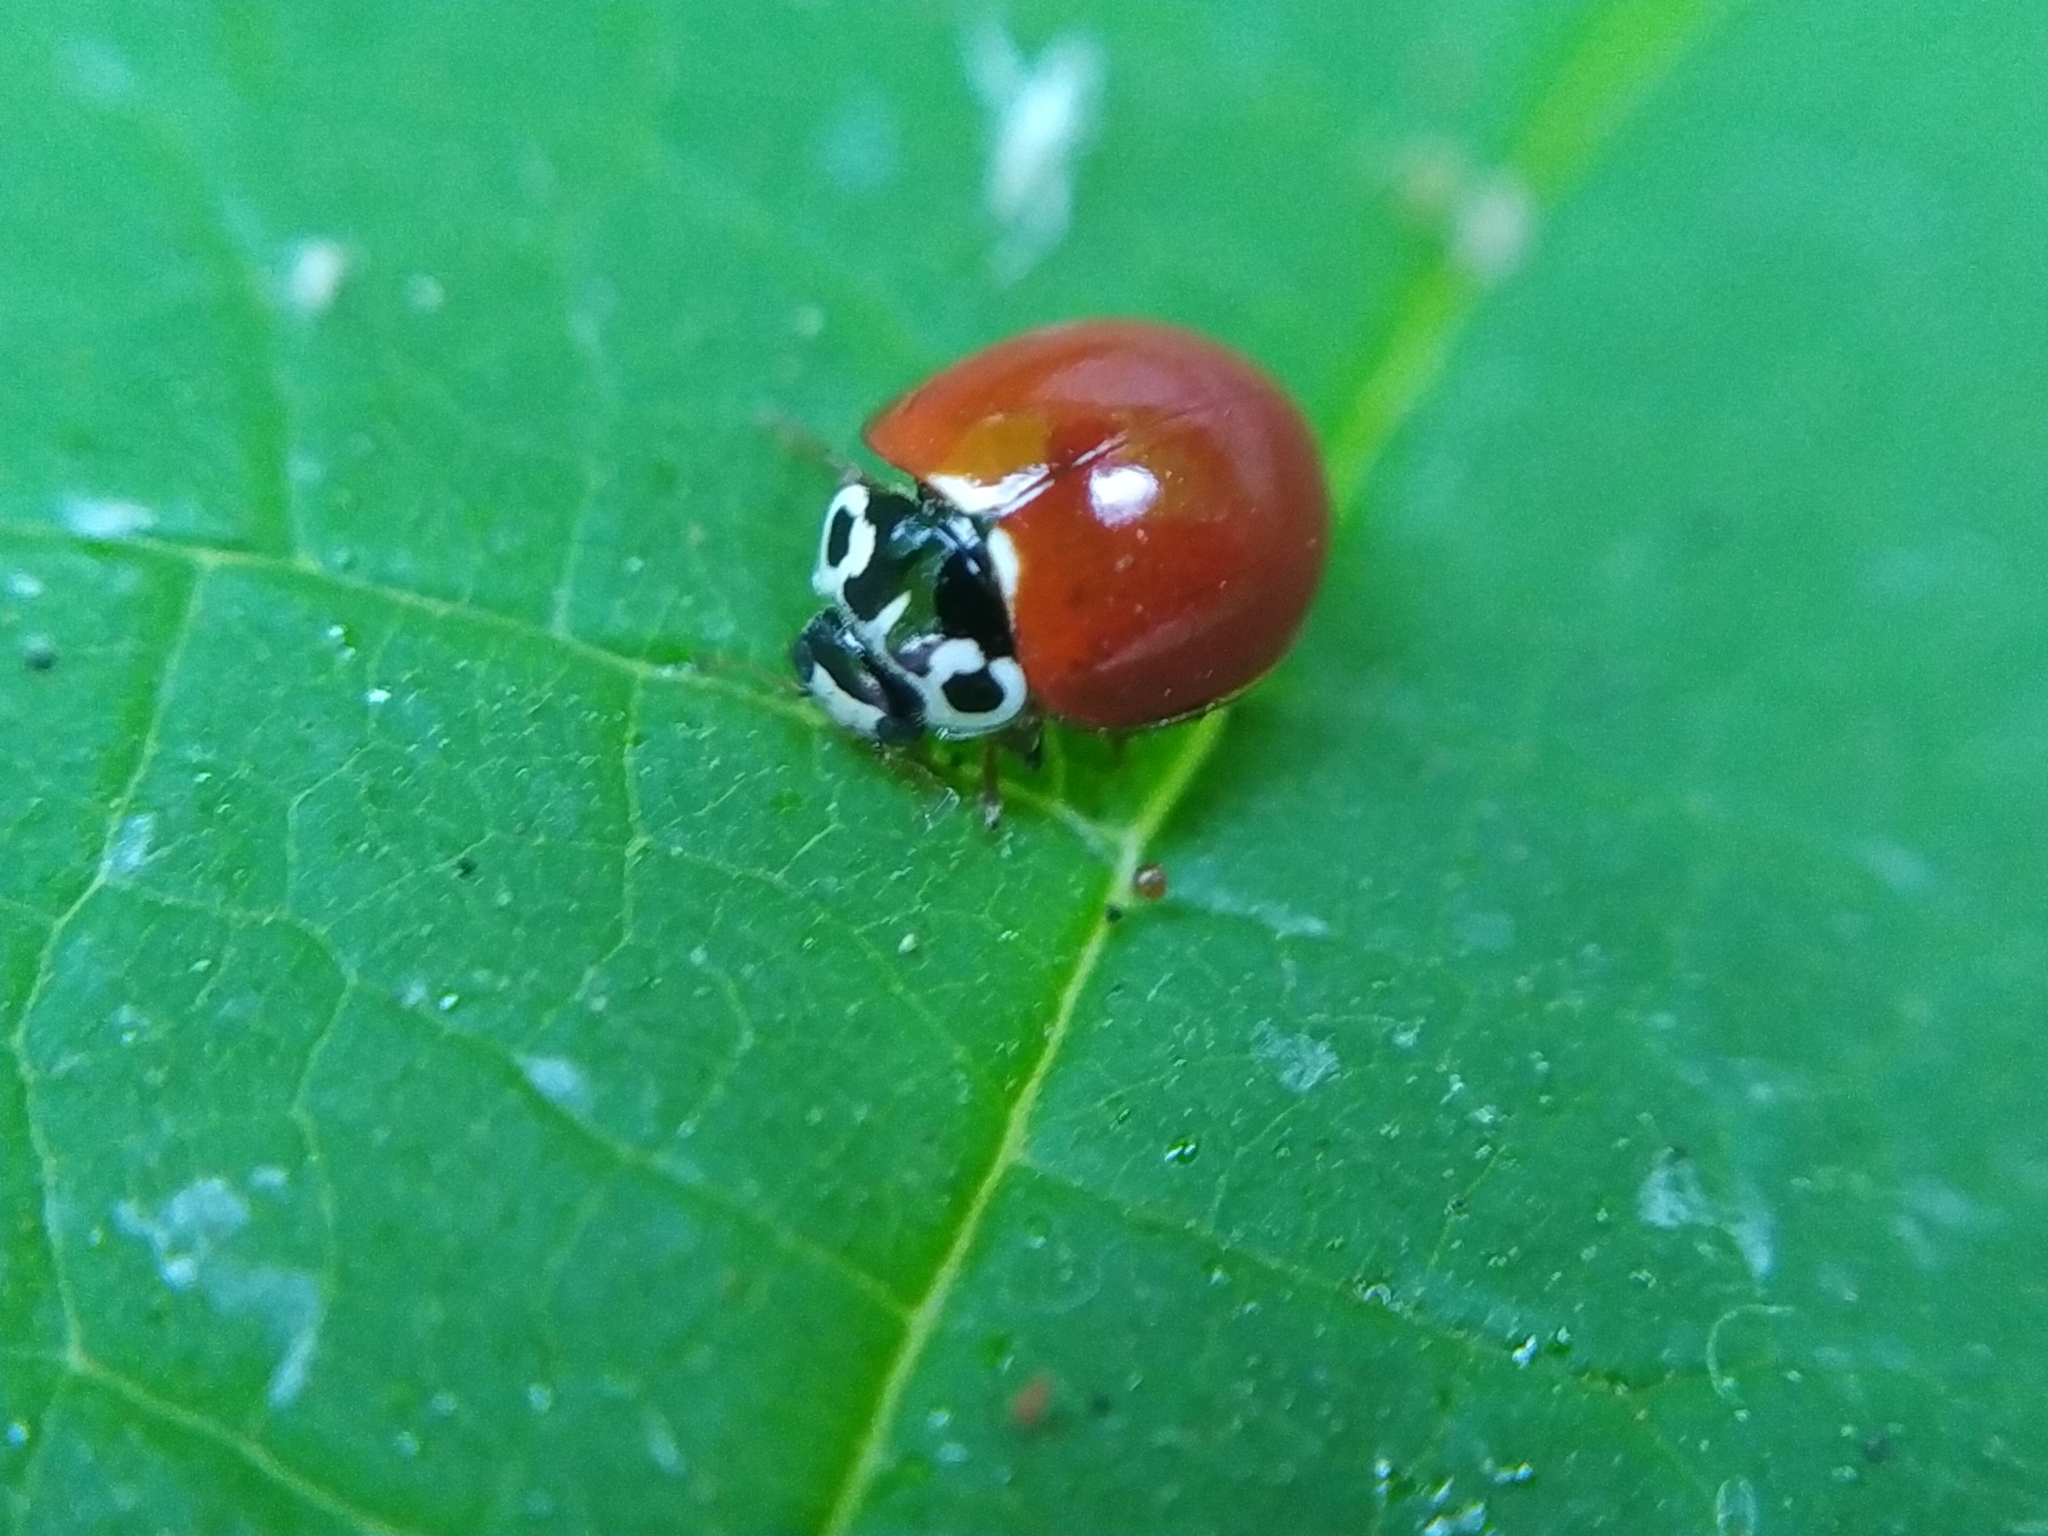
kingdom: Animalia
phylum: Arthropoda
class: Insecta
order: Coleoptera
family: Coccinellidae
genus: Cycloneda
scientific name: Cycloneda polita
